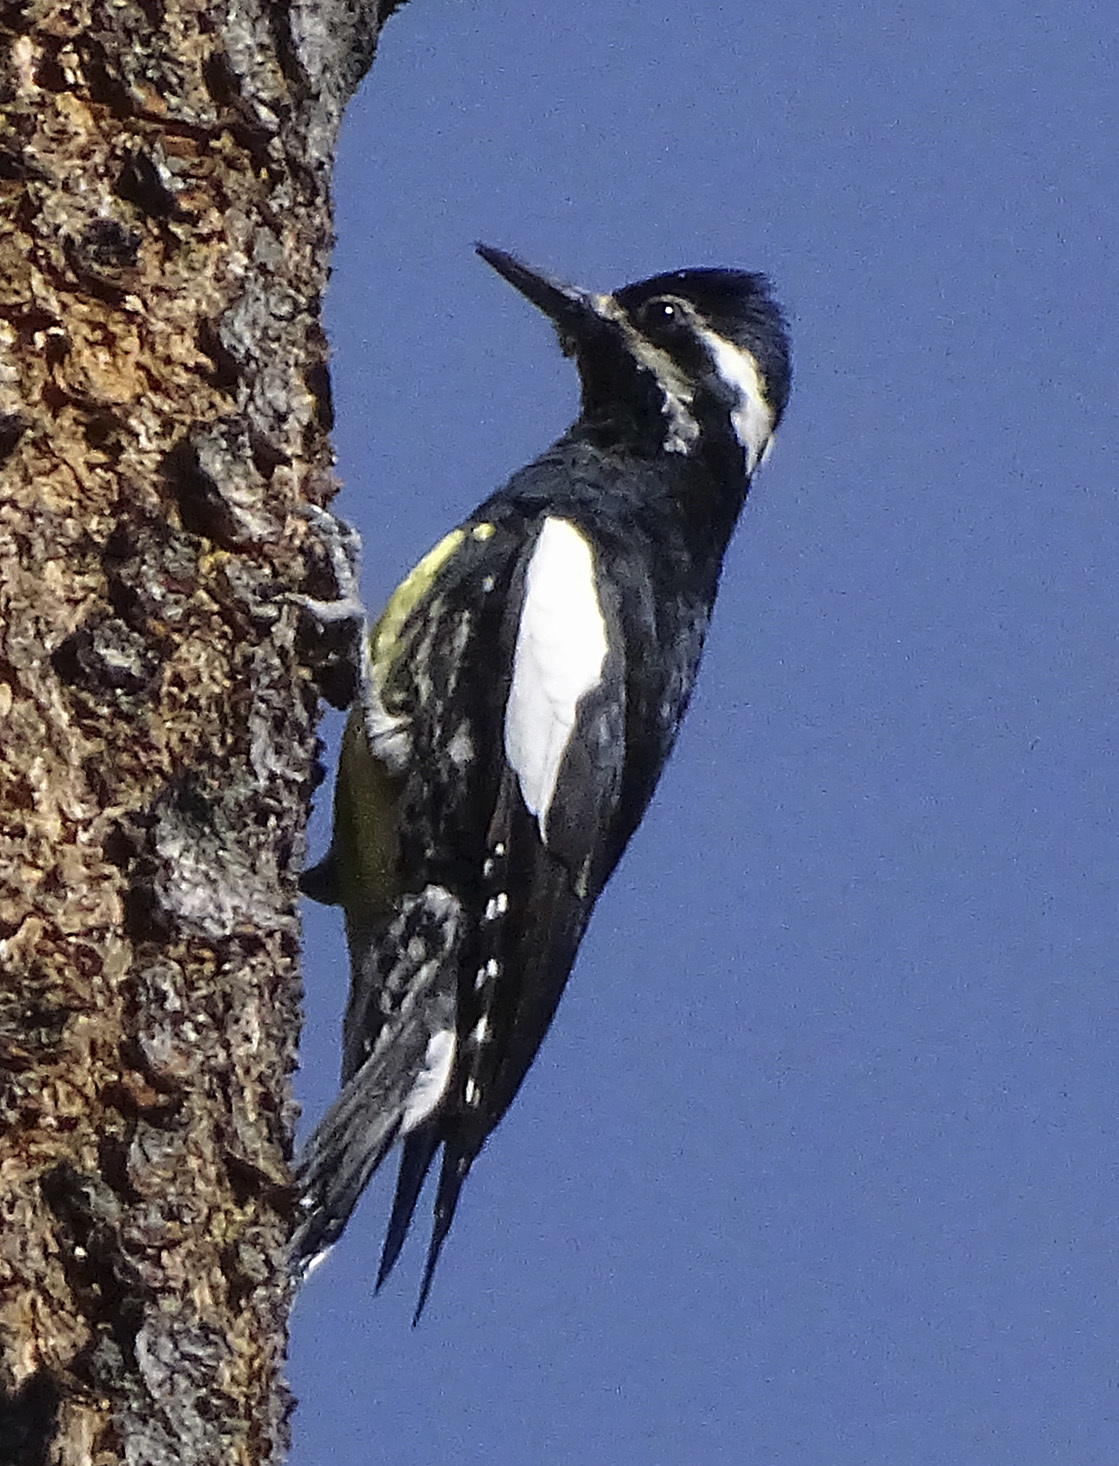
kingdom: Animalia
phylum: Chordata
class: Aves
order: Piciformes
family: Picidae
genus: Sphyrapicus
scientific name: Sphyrapicus thyroideus
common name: Williamson's sapsucker
